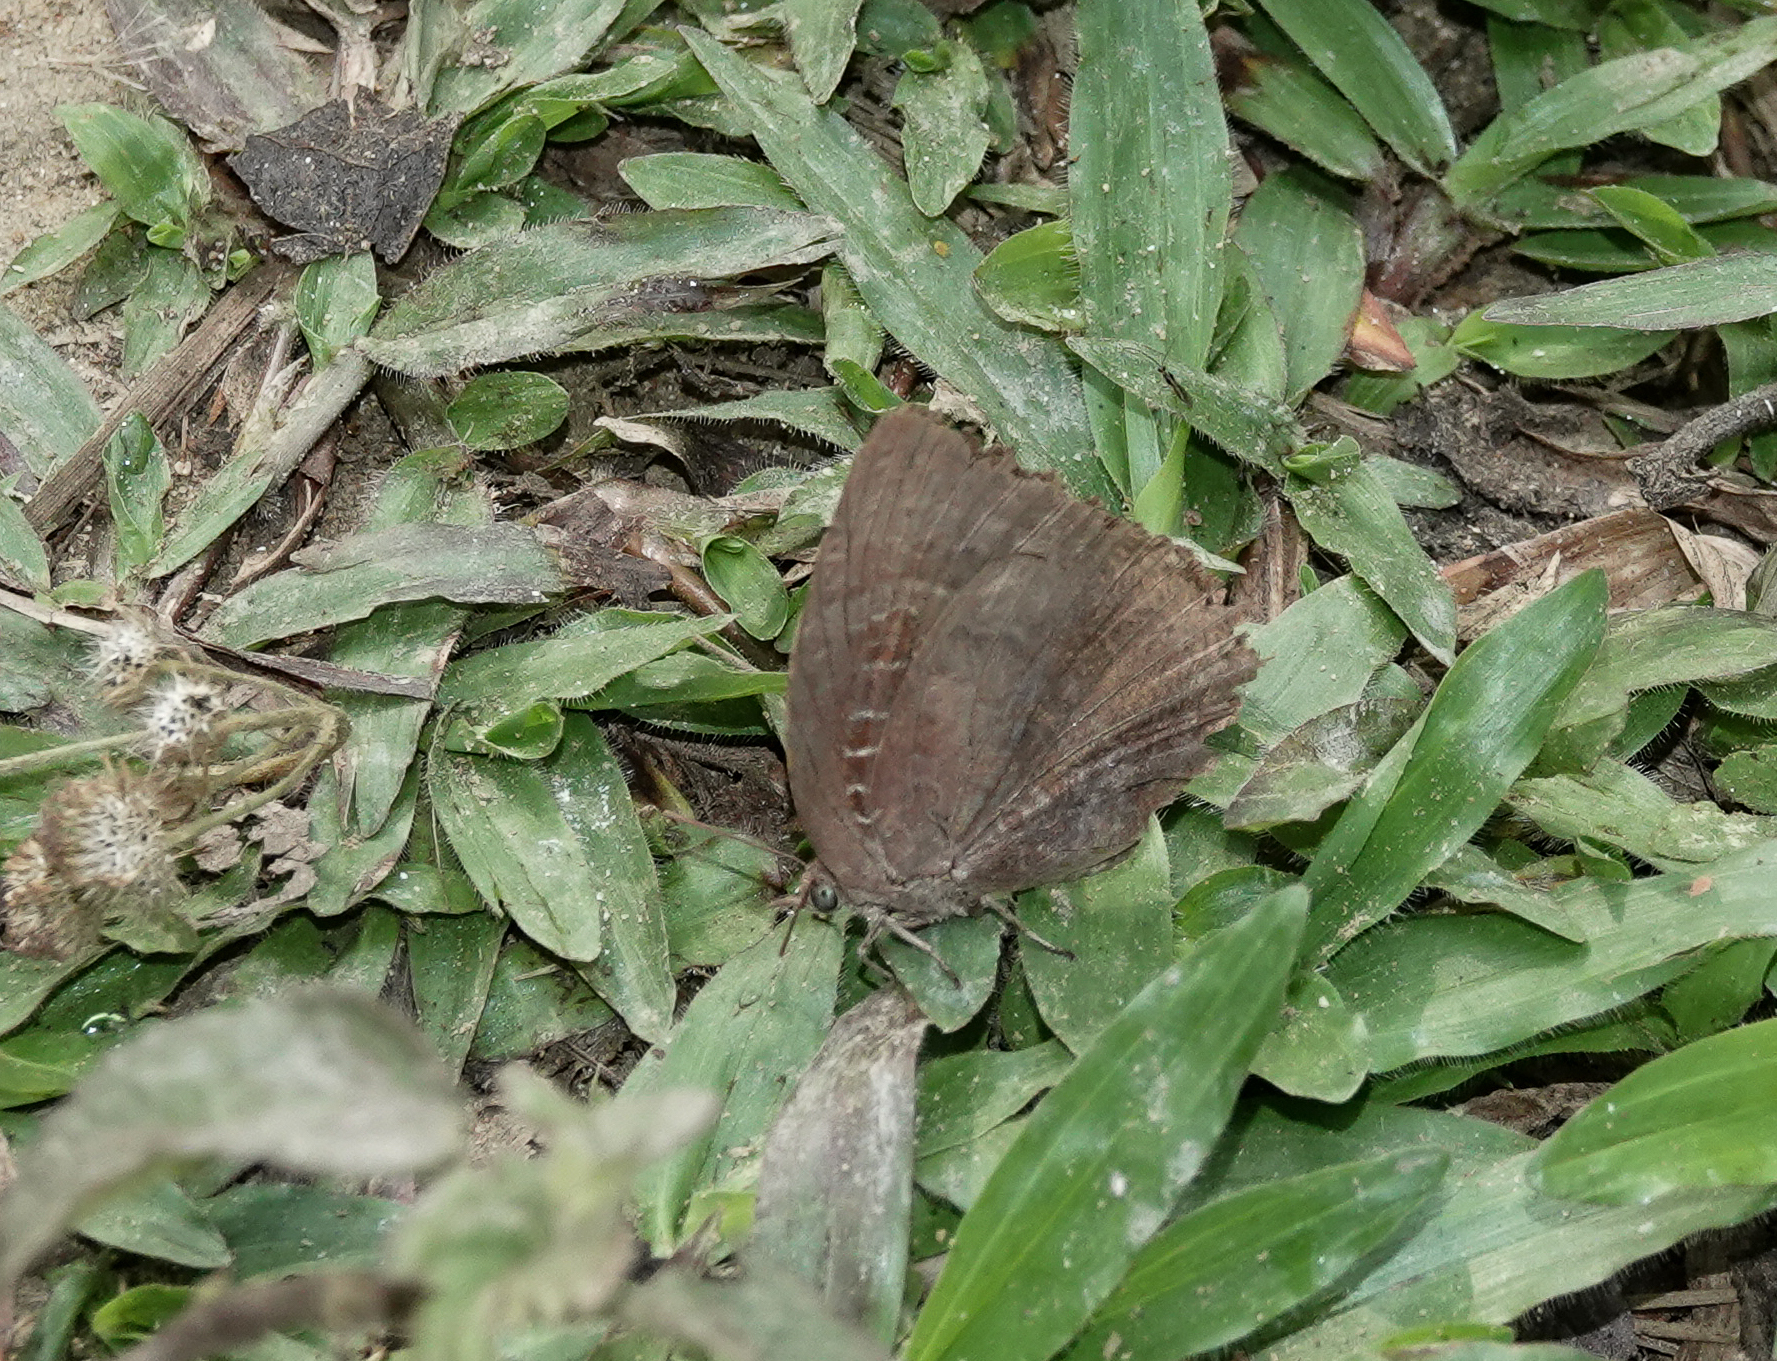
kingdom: Animalia
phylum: Arthropoda
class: Insecta
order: Lepidoptera
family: Lycaenidae
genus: Arhopala
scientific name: Arhopala centaurus
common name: Dull oak-blue
